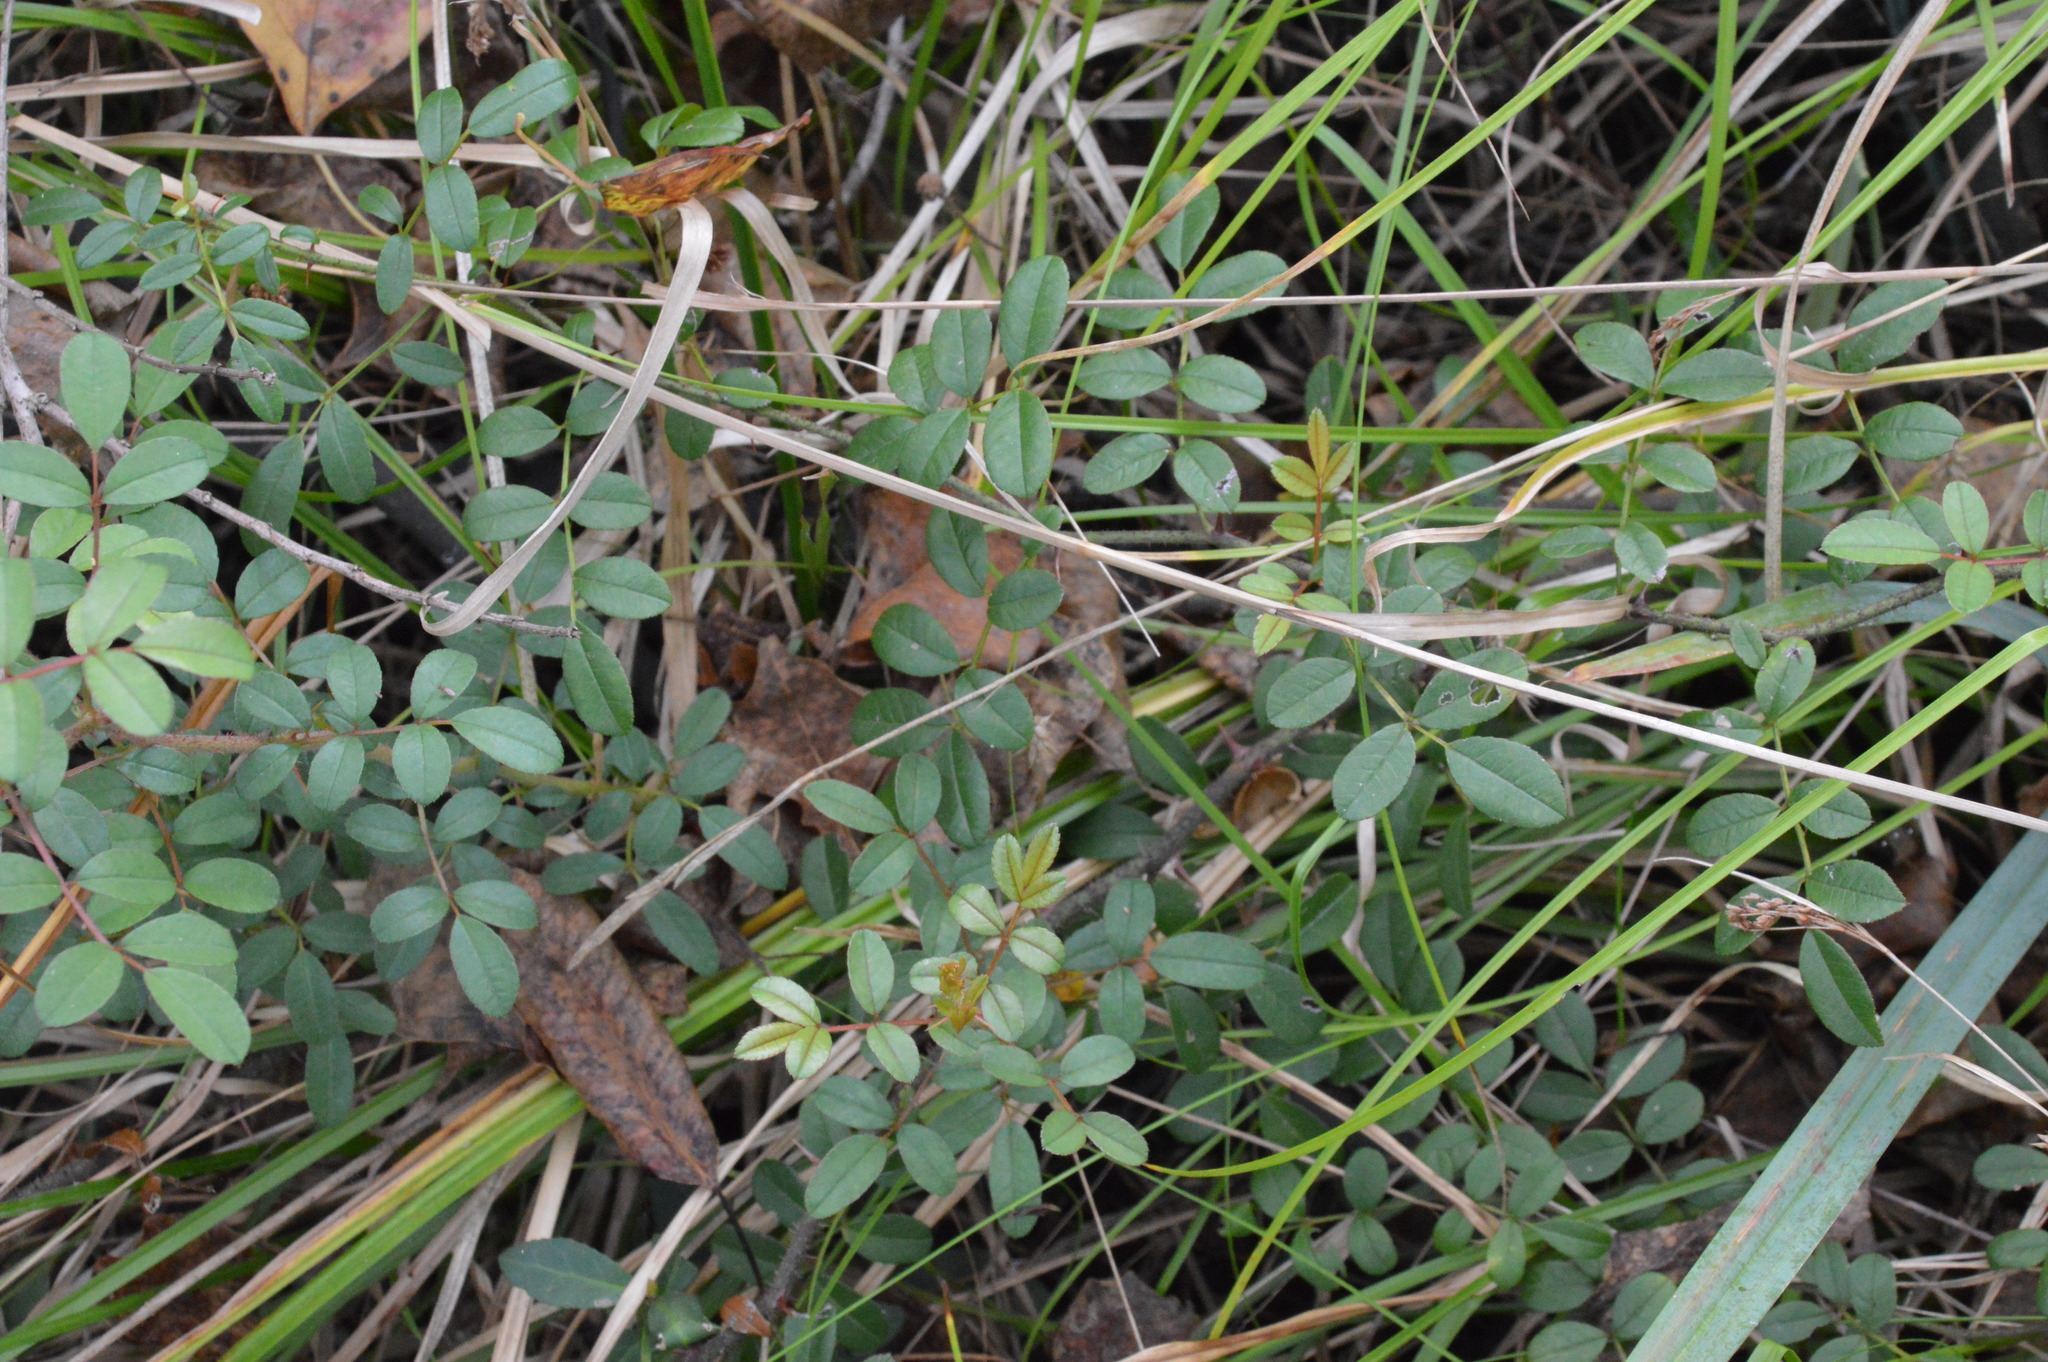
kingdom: Plantae
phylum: Tracheophyta
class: Magnoliopsida
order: Rosales
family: Rosaceae
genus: Rosa
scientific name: Rosa bracteata
